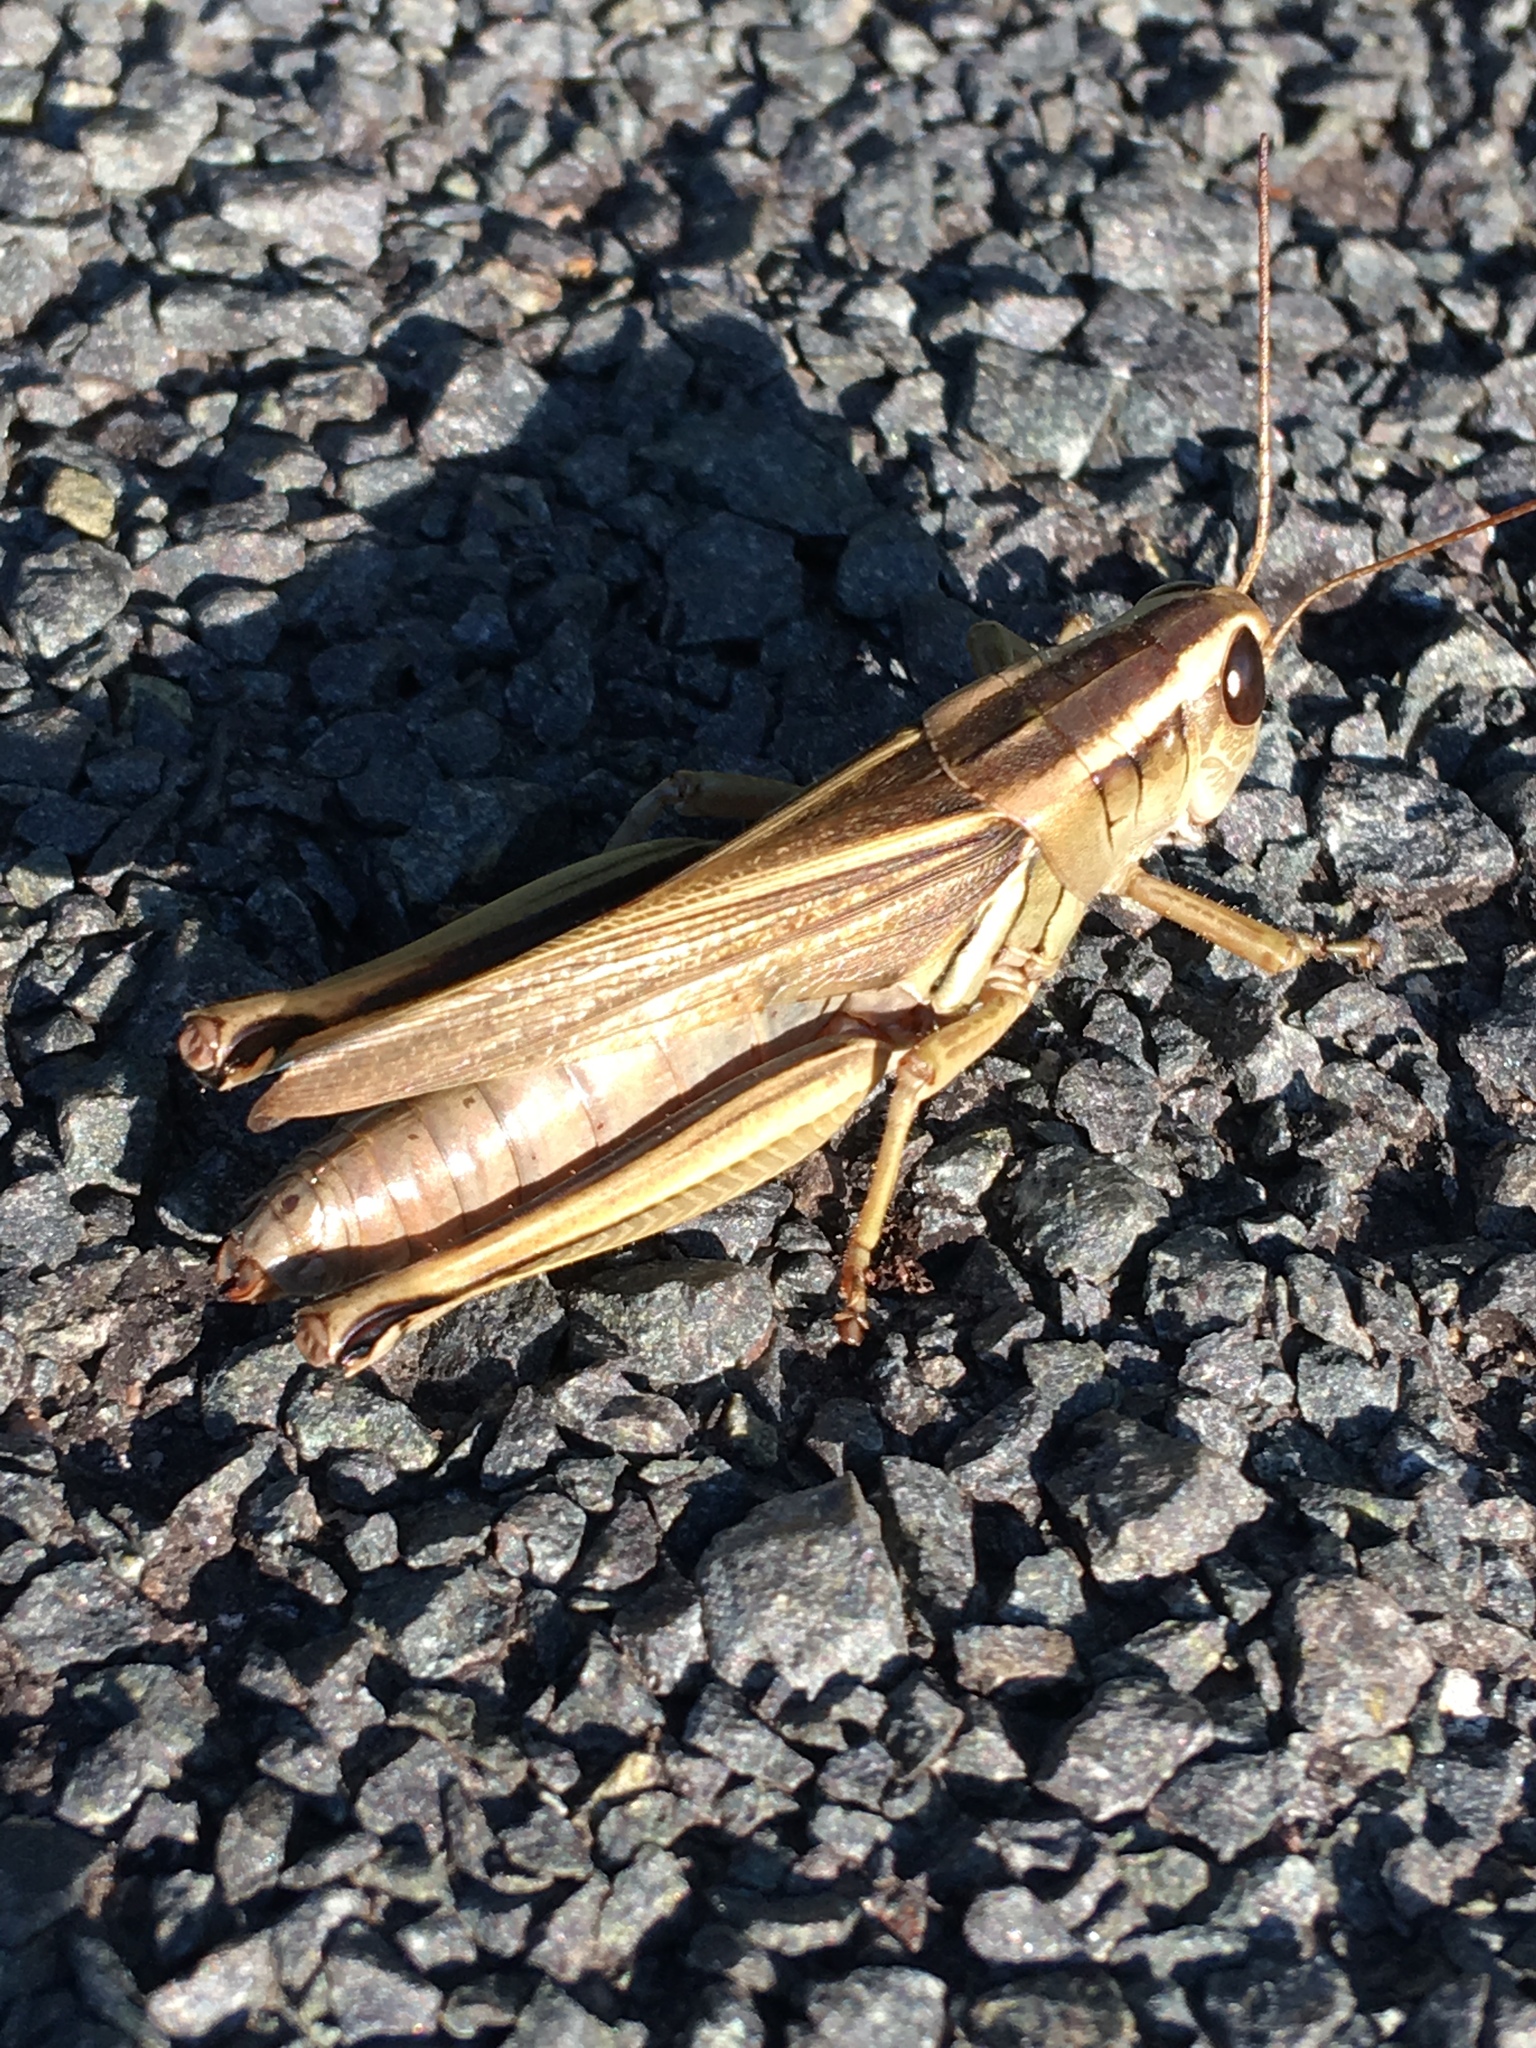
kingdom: Animalia
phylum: Arthropoda
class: Insecta
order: Orthoptera
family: Acrididae
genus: Melanoplus
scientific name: Melanoplus bivittatus
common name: Two-striped grasshopper
